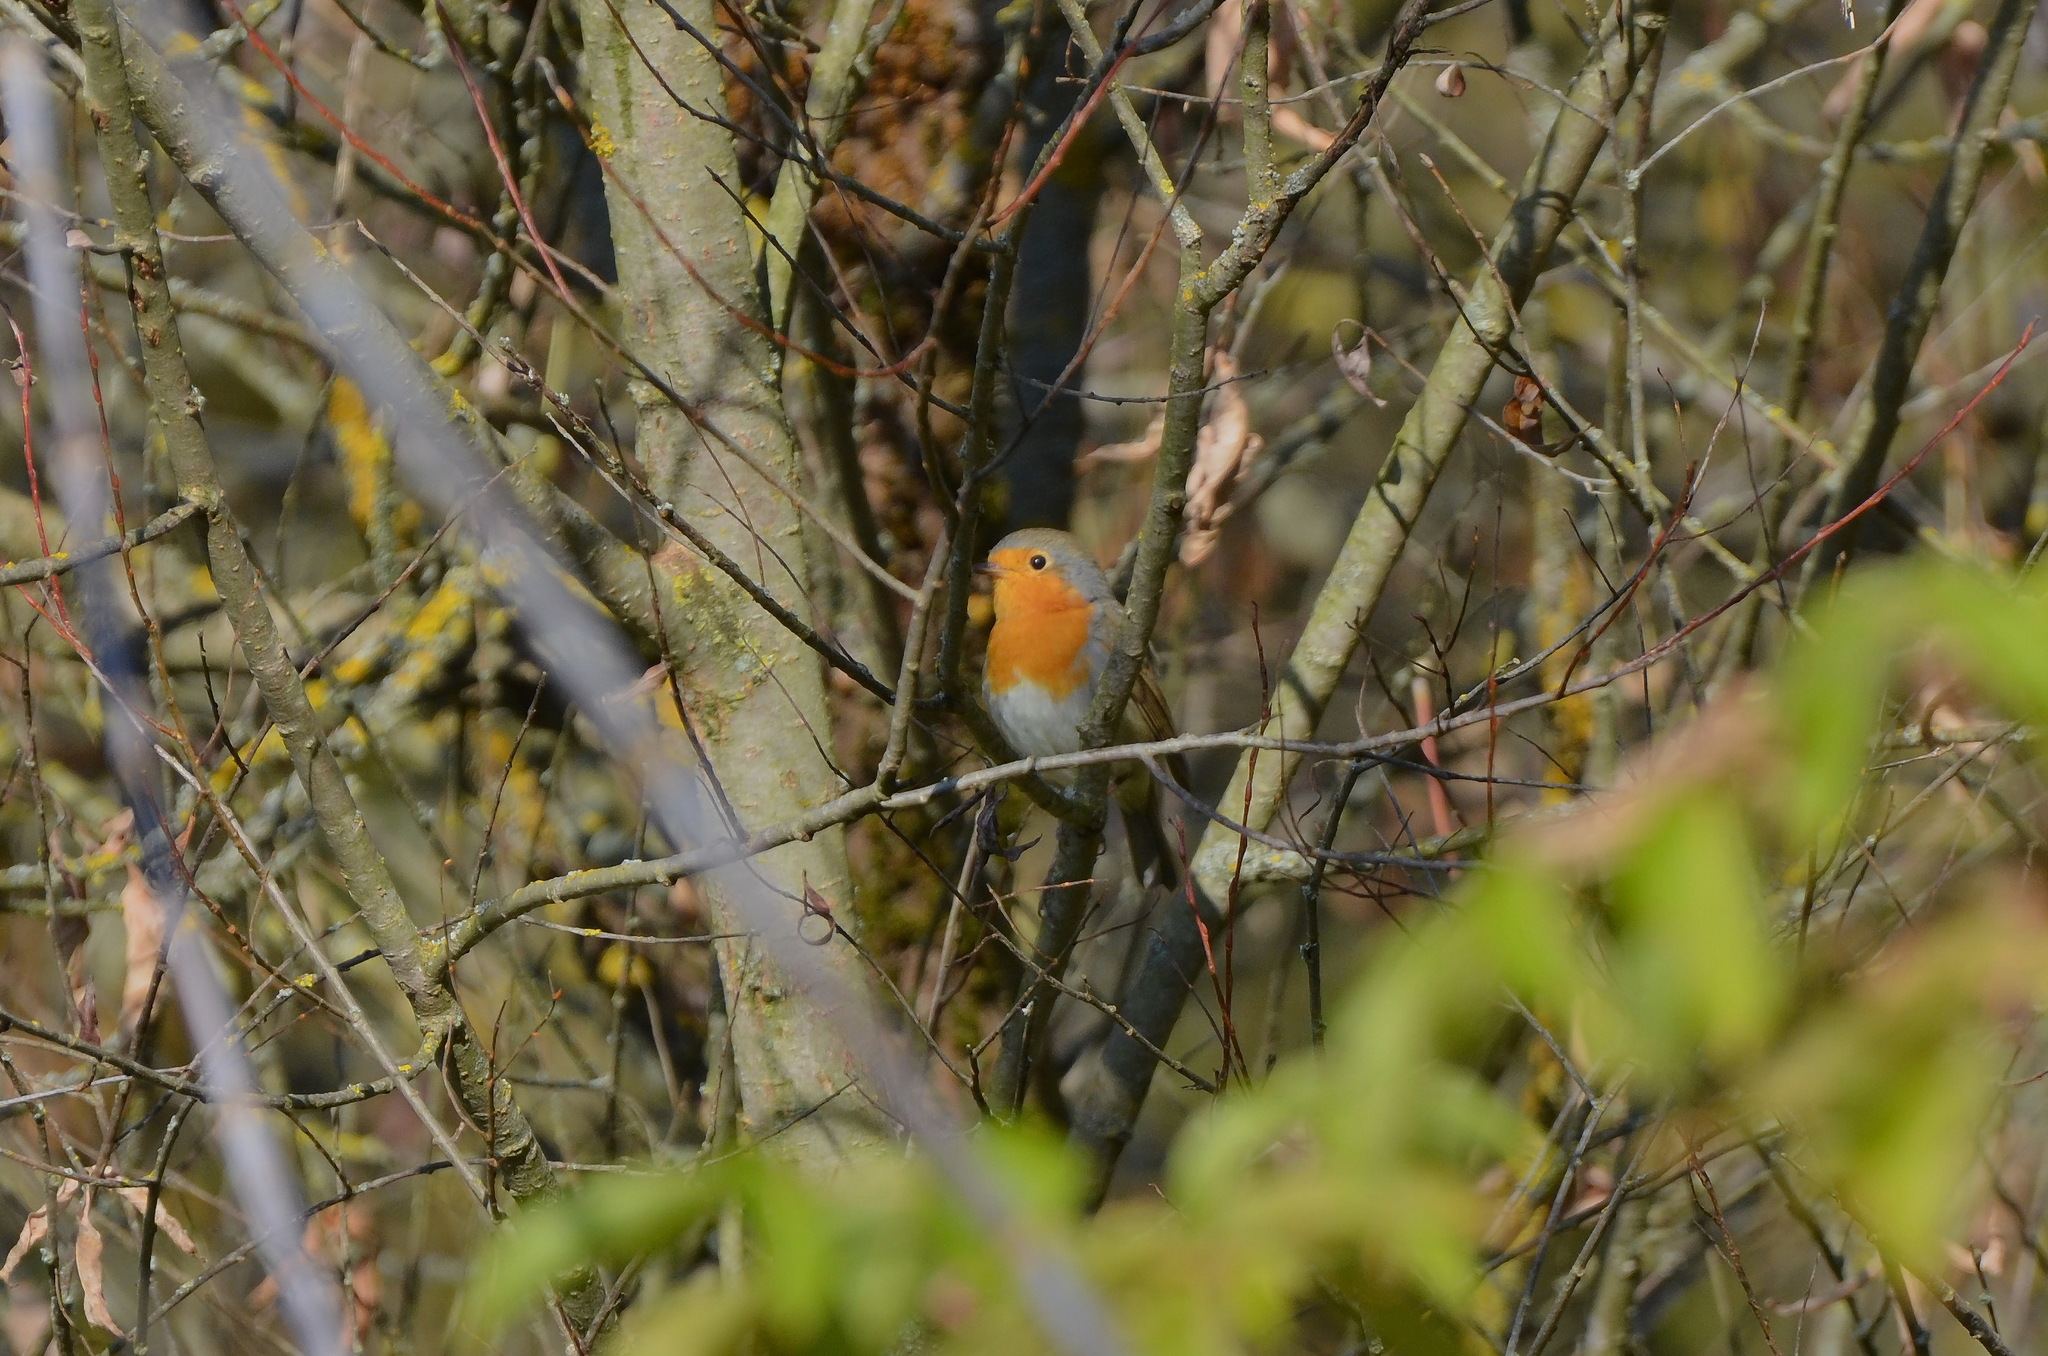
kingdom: Animalia
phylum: Chordata
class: Aves
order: Passeriformes
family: Muscicapidae
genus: Erithacus
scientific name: Erithacus rubecula
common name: European robin
